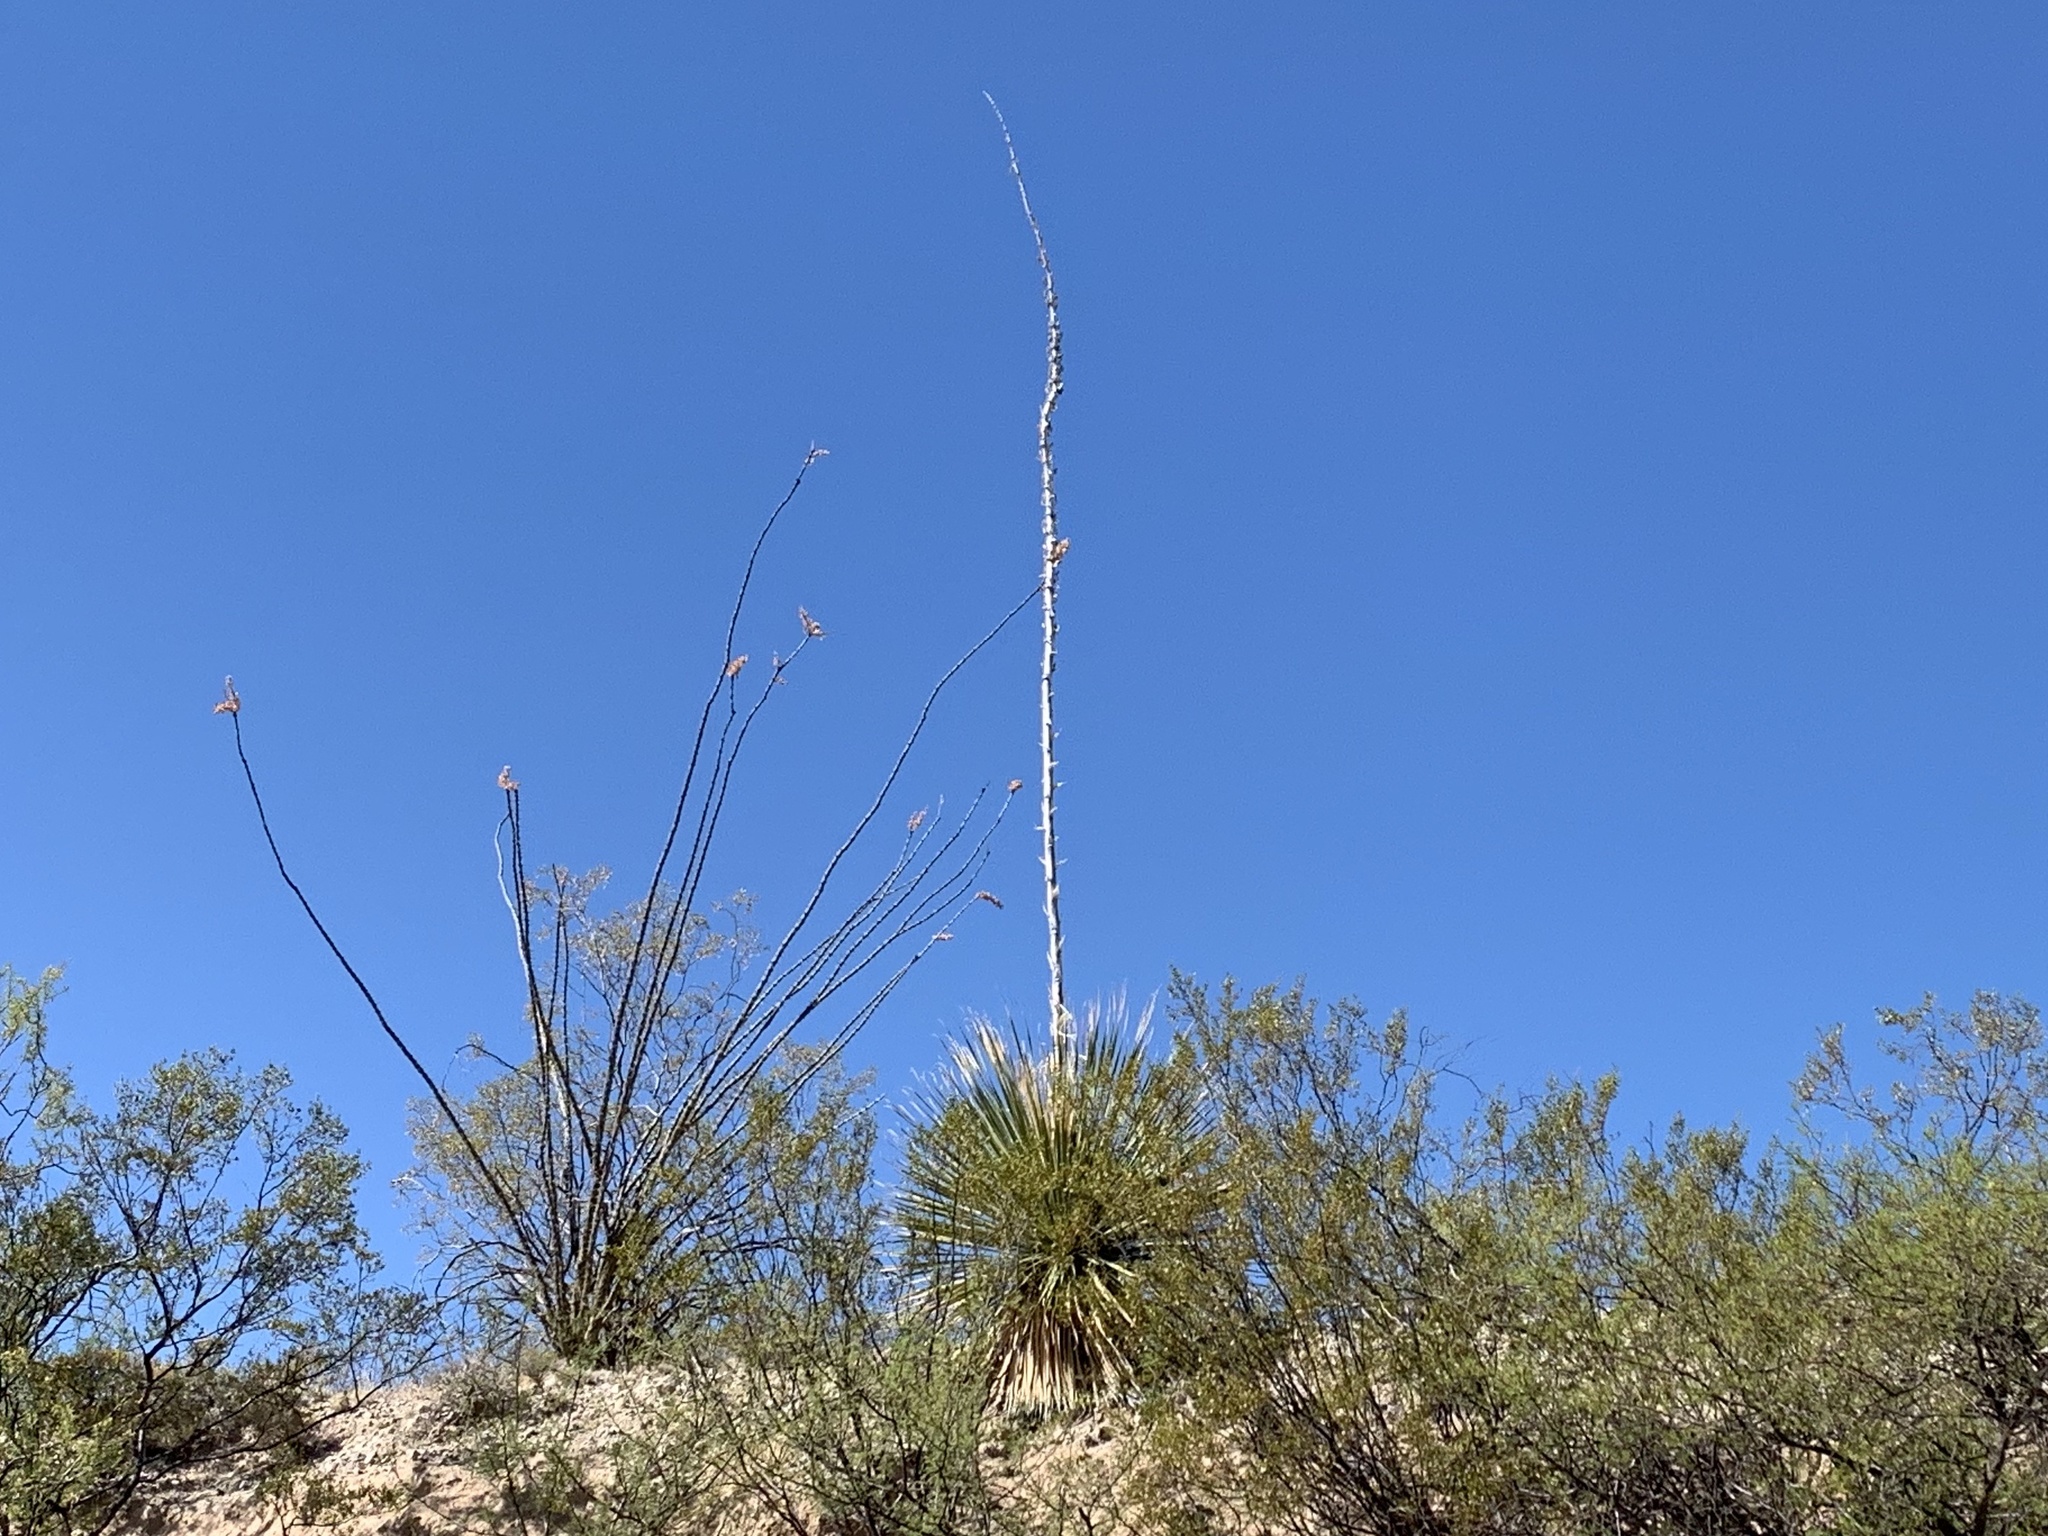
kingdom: Plantae
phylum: Tracheophyta
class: Liliopsida
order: Asparagales
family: Asparagaceae
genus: Yucca
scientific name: Yucca elata
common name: Palmella
